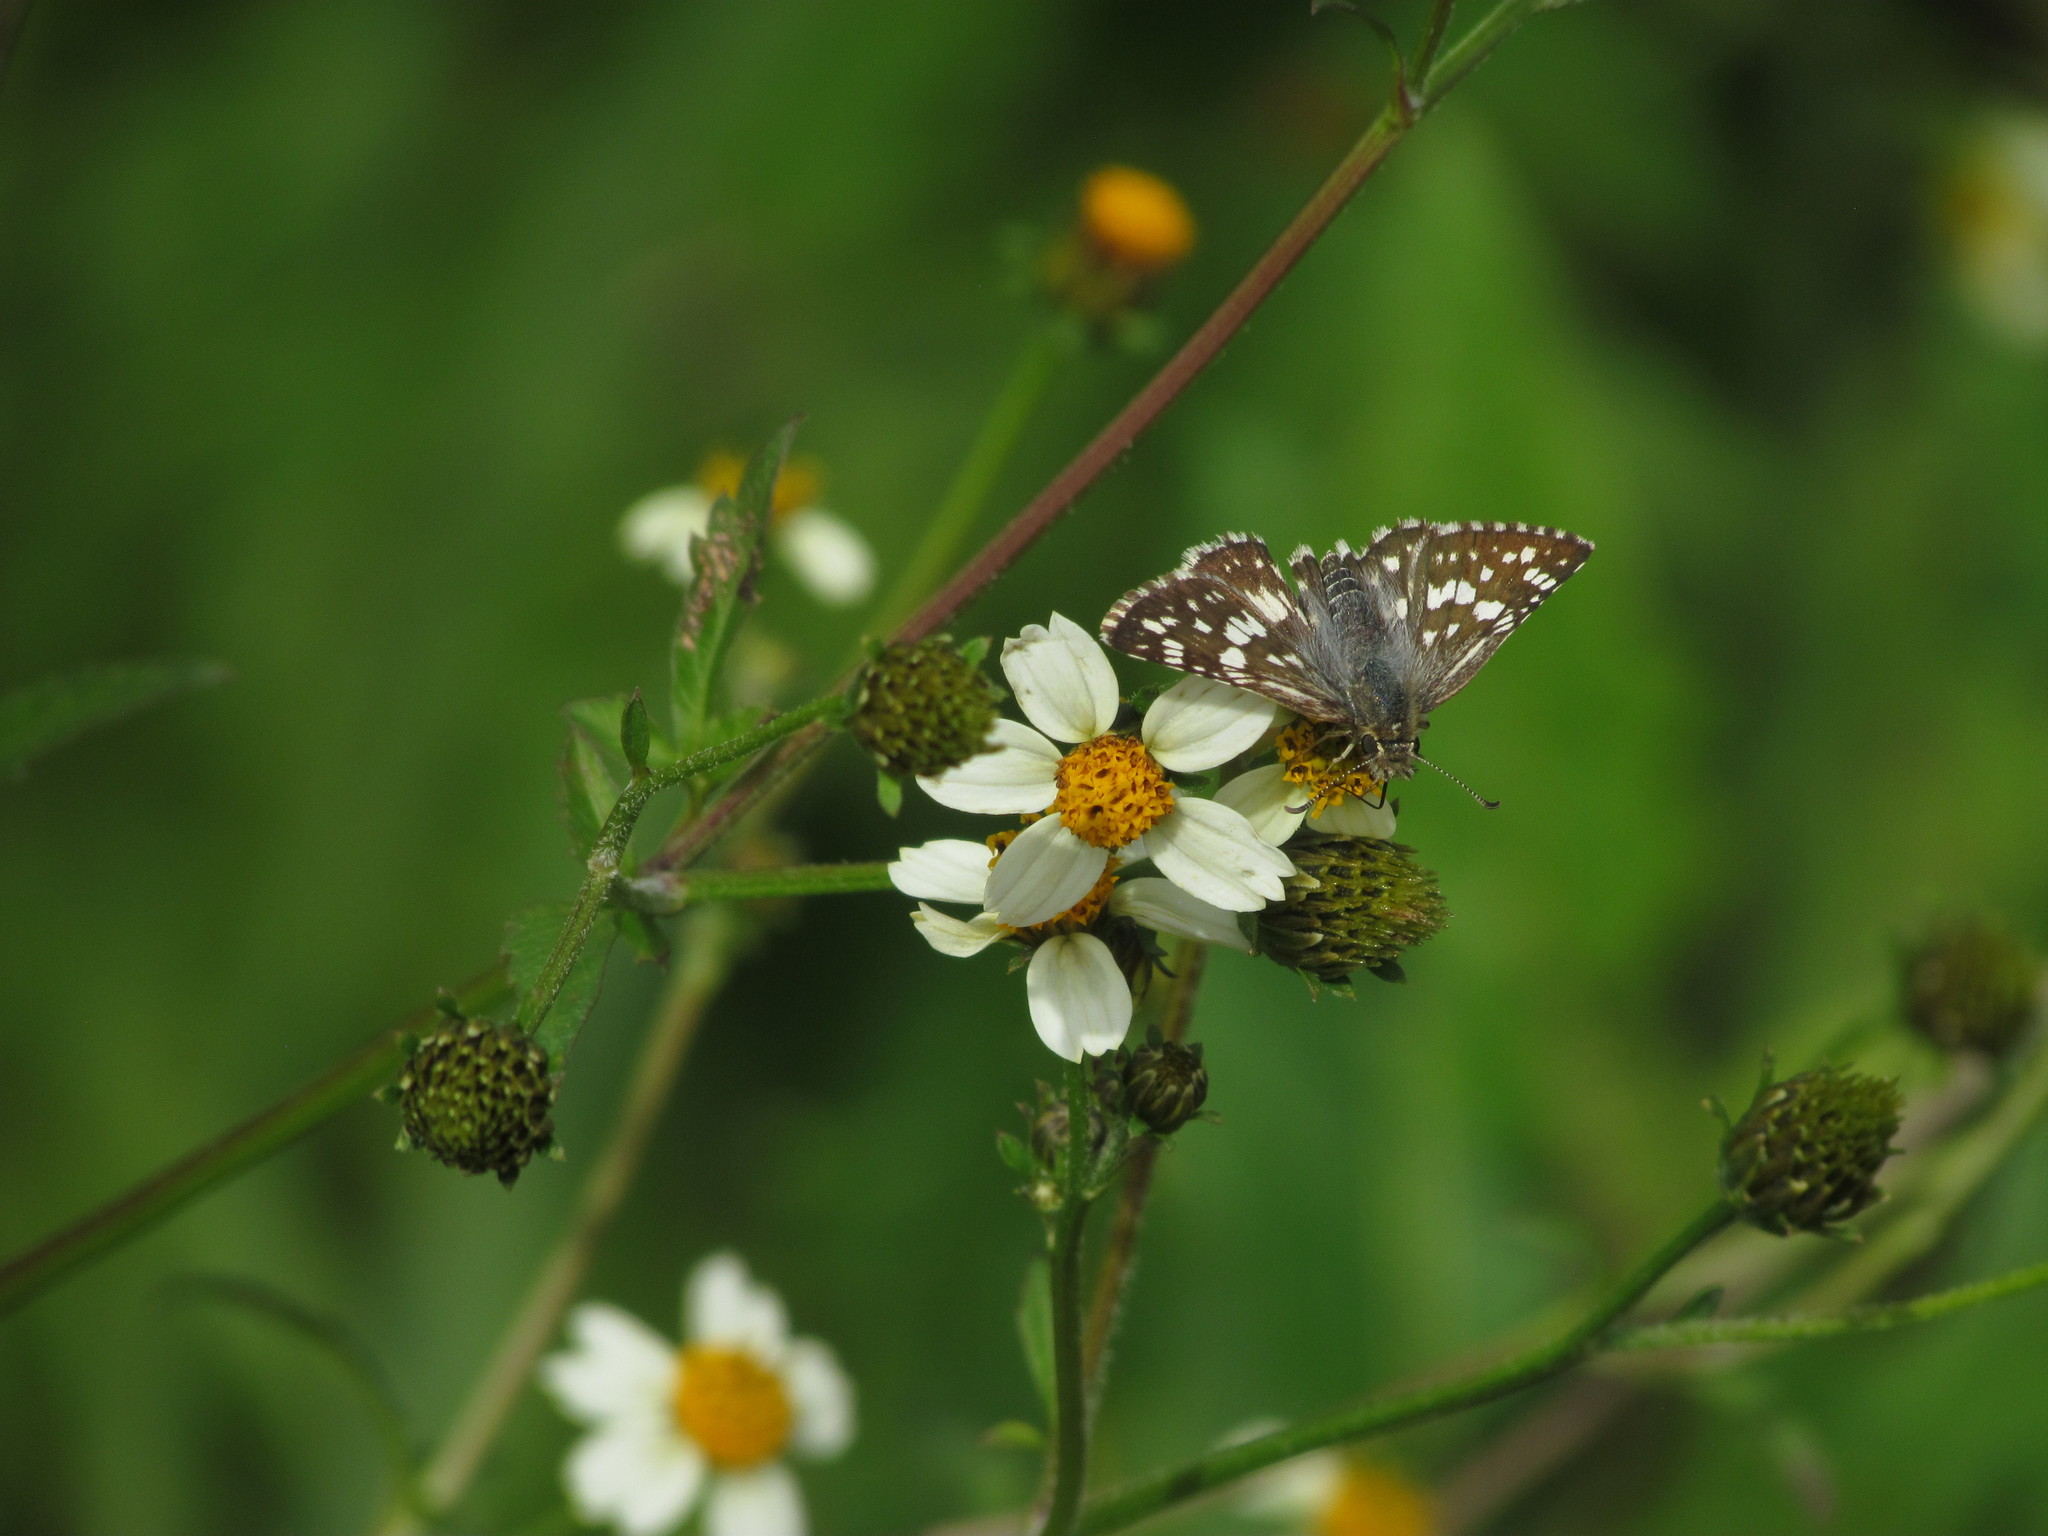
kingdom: Animalia
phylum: Arthropoda
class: Insecta
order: Lepidoptera
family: Hesperiidae
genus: Burnsius
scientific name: Burnsius orcynoides
